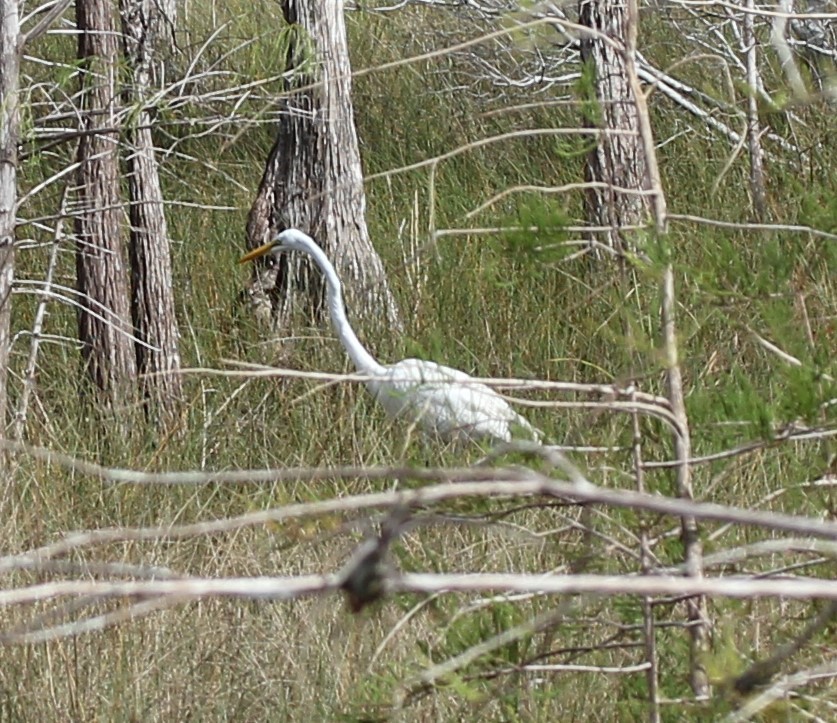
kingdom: Animalia
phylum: Chordata
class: Aves
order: Pelecaniformes
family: Ardeidae
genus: Ardea
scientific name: Ardea alba
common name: Great egret
